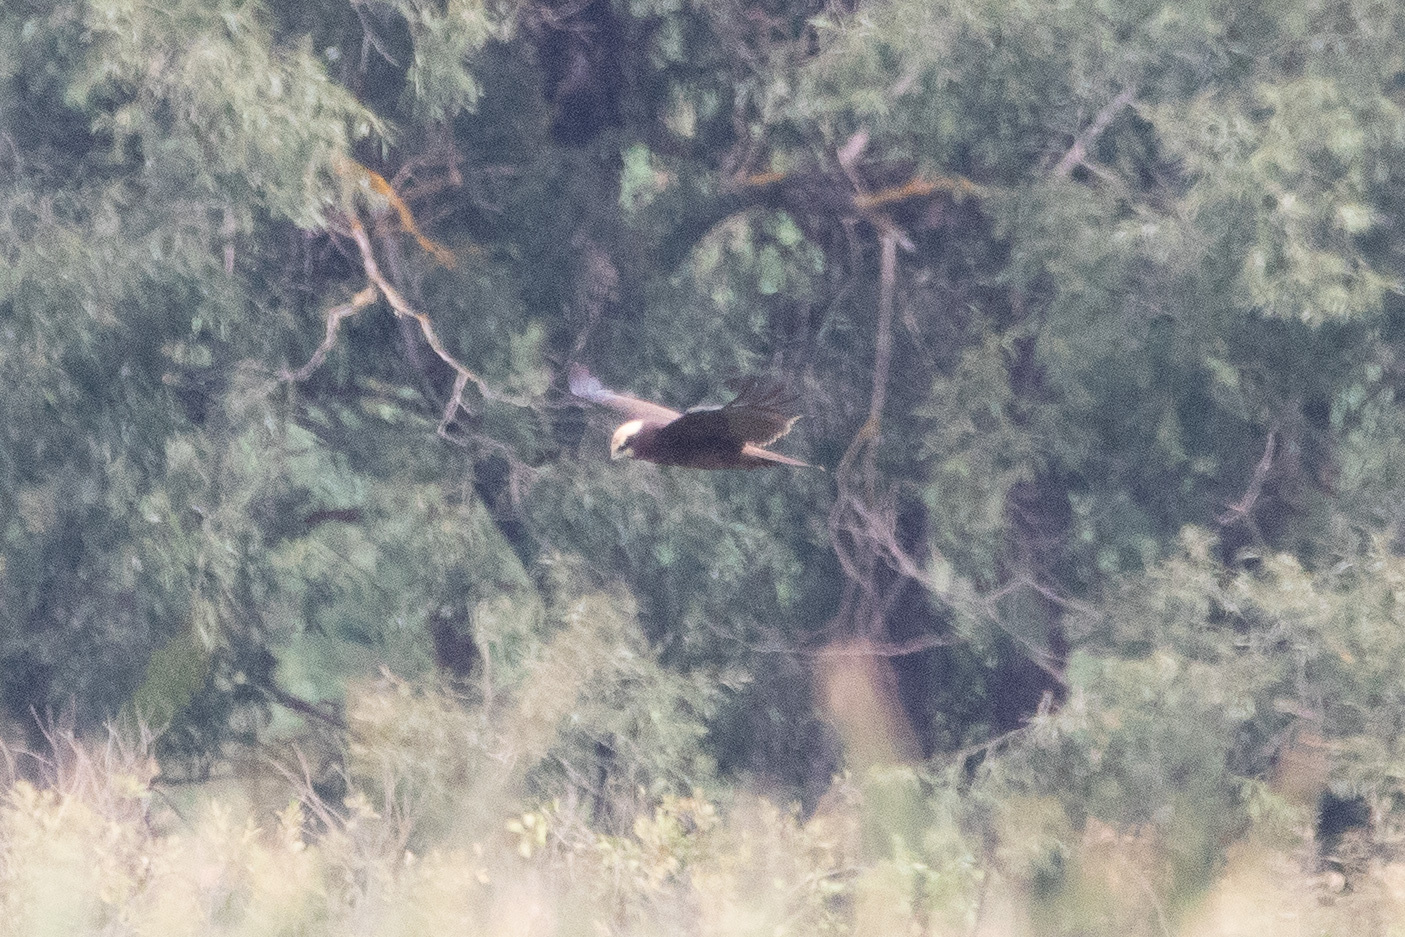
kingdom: Animalia
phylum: Chordata
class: Aves
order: Accipitriformes
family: Accipitridae
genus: Circus
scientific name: Circus aeruginosus
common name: Western marsh harrier
